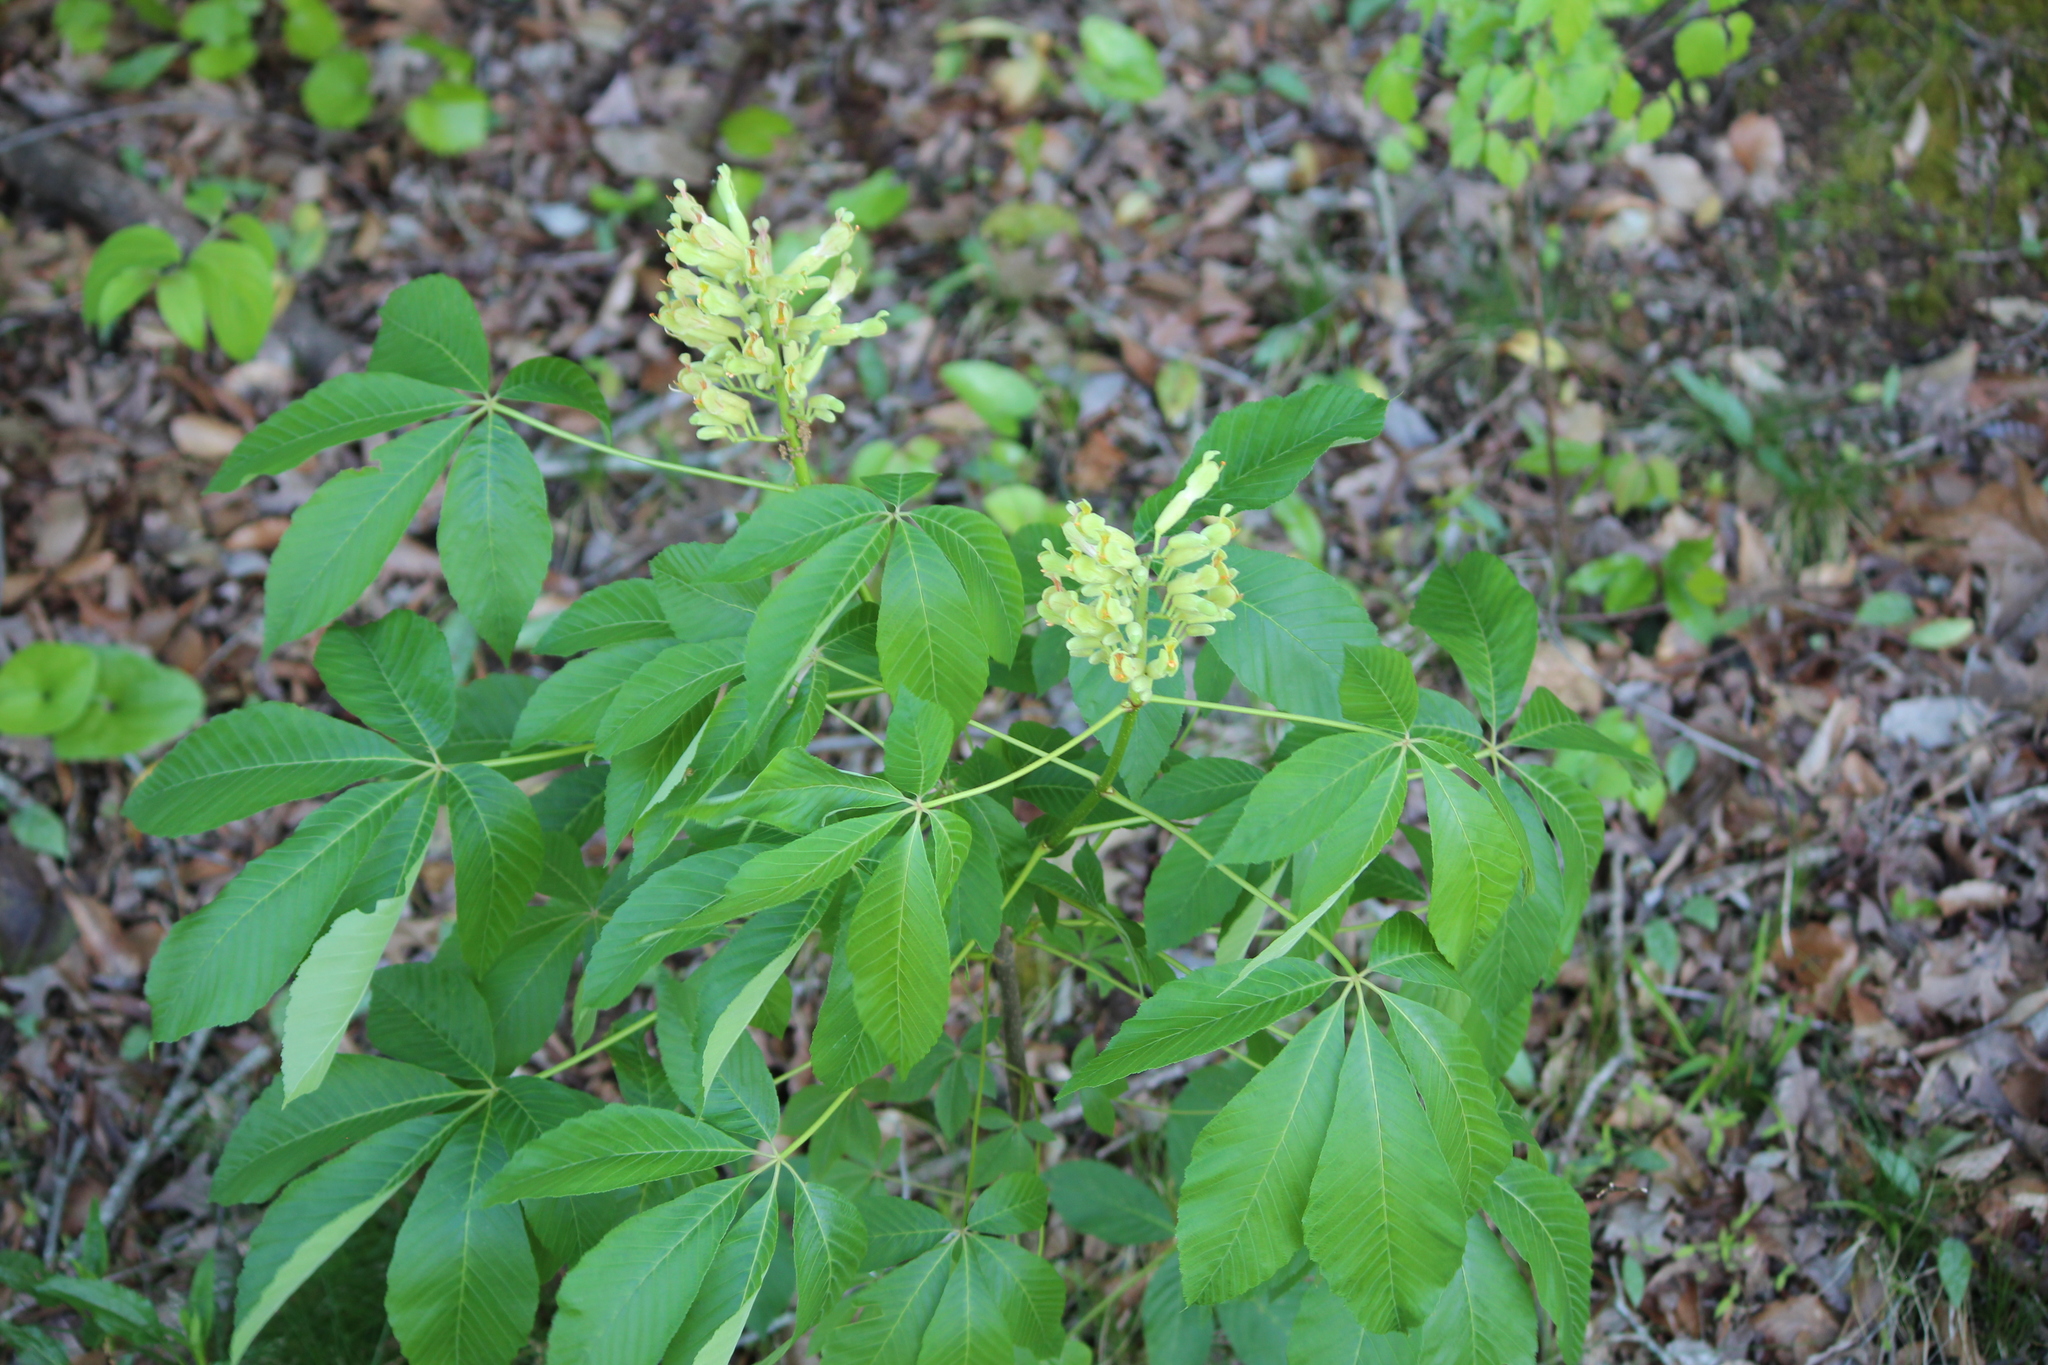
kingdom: Plantae
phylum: Tracheophyta
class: Magnoliopsida
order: Sapindales
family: Sapindaceae
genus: Aesculus
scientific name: Aesculus sylvatica
